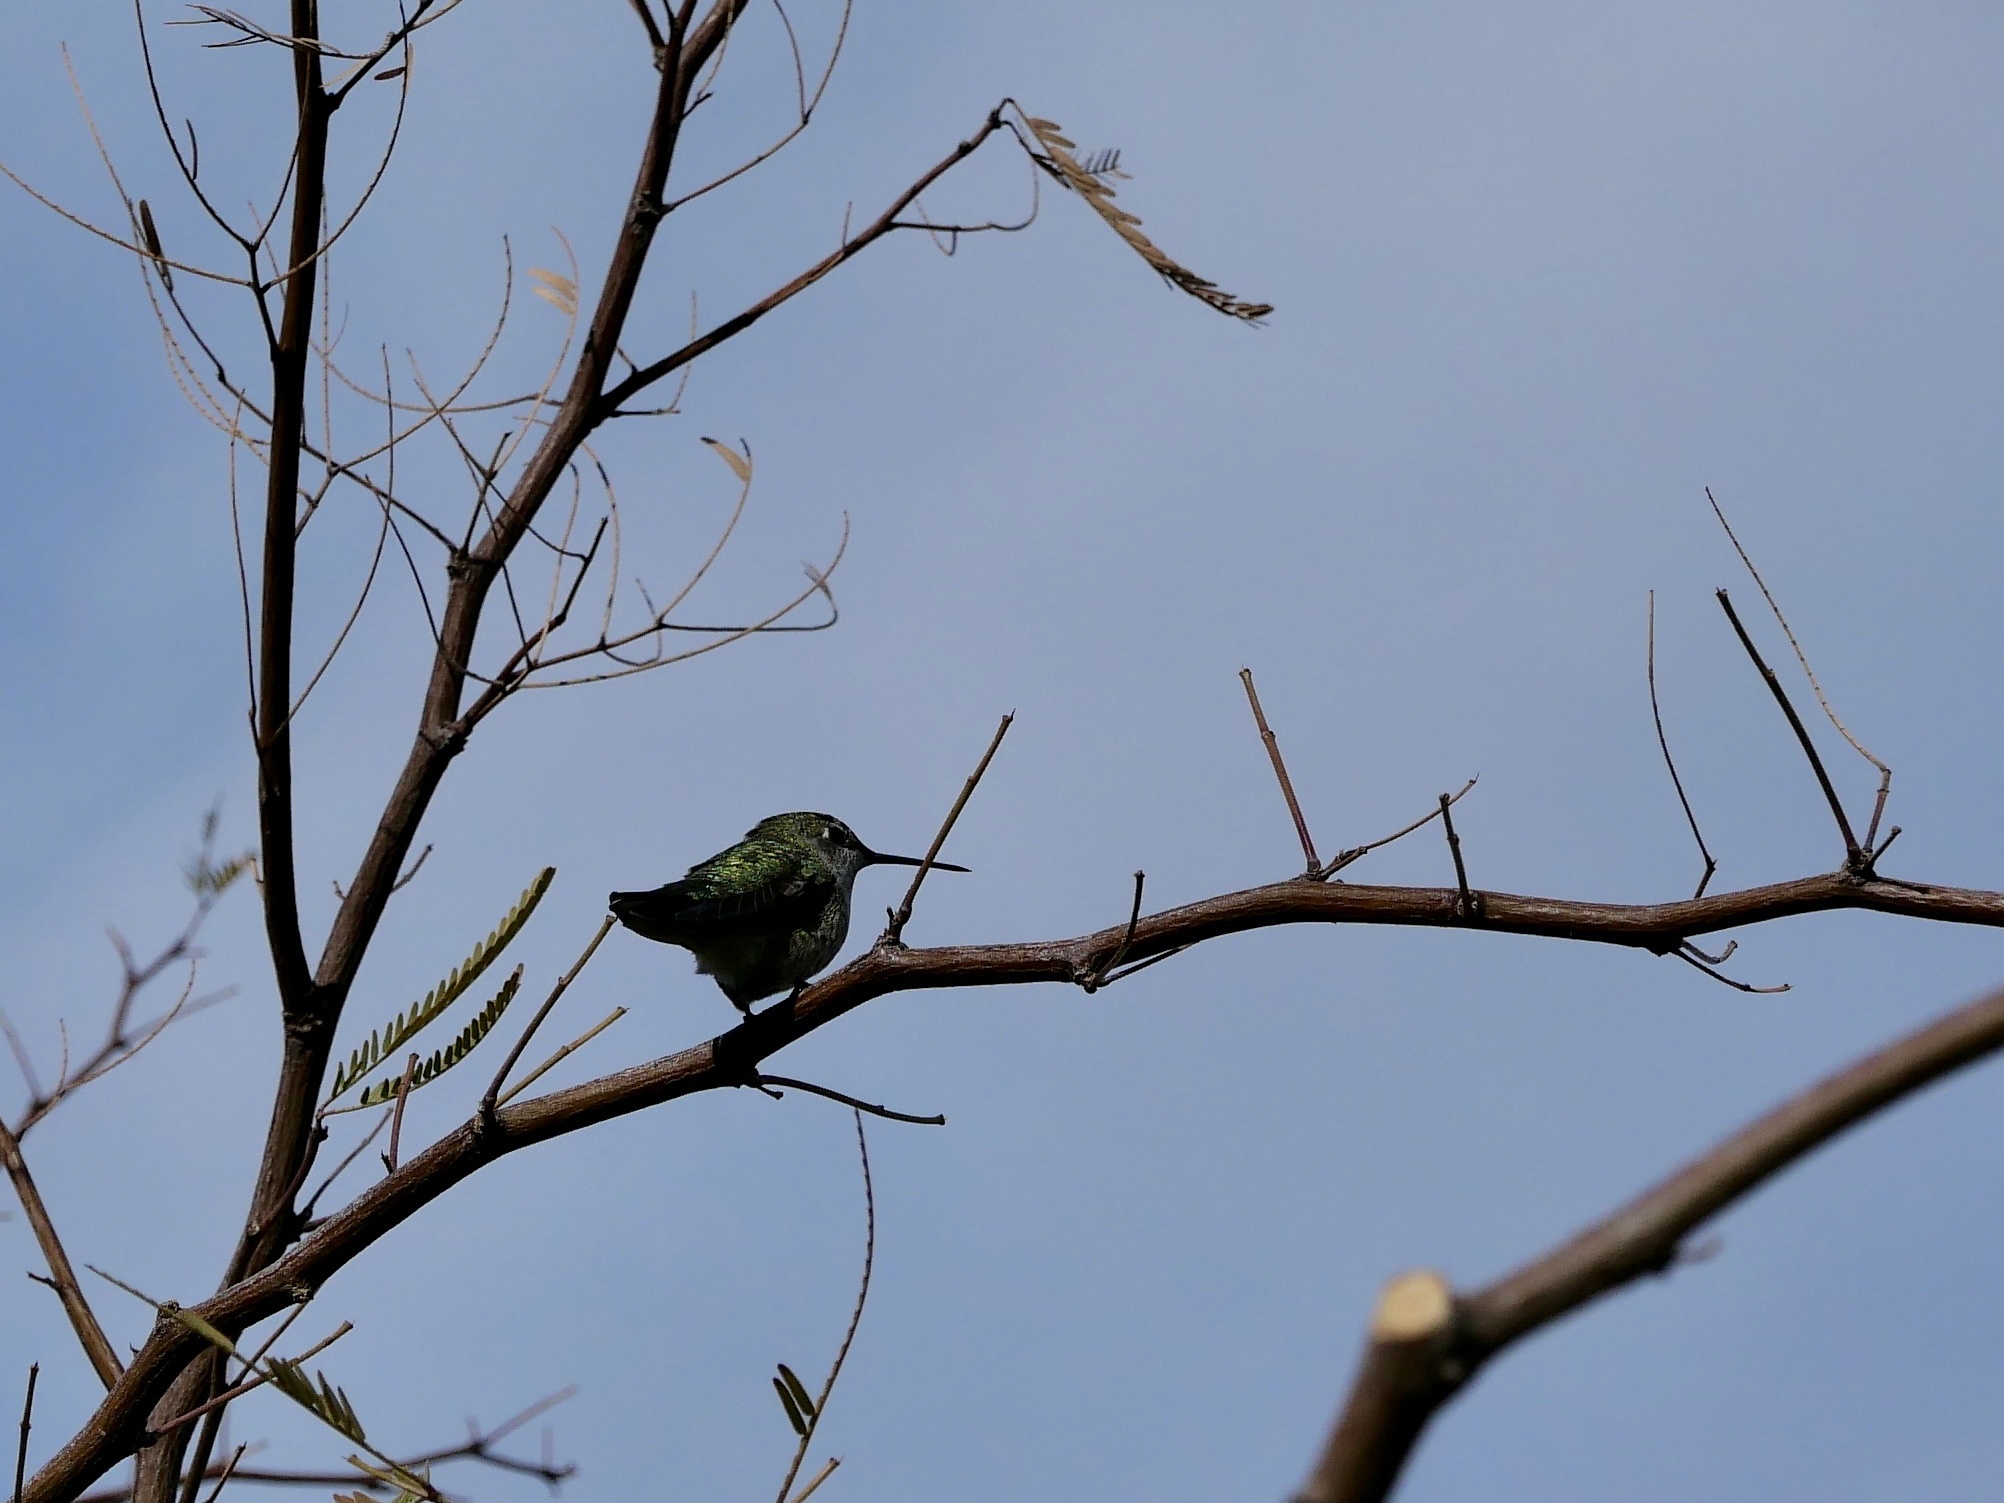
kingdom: Animalia
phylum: Chordata
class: Aves
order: Apodiformes
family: Trochilidae
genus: Calypte
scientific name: Calypte anna
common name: Anna's hummingbird
